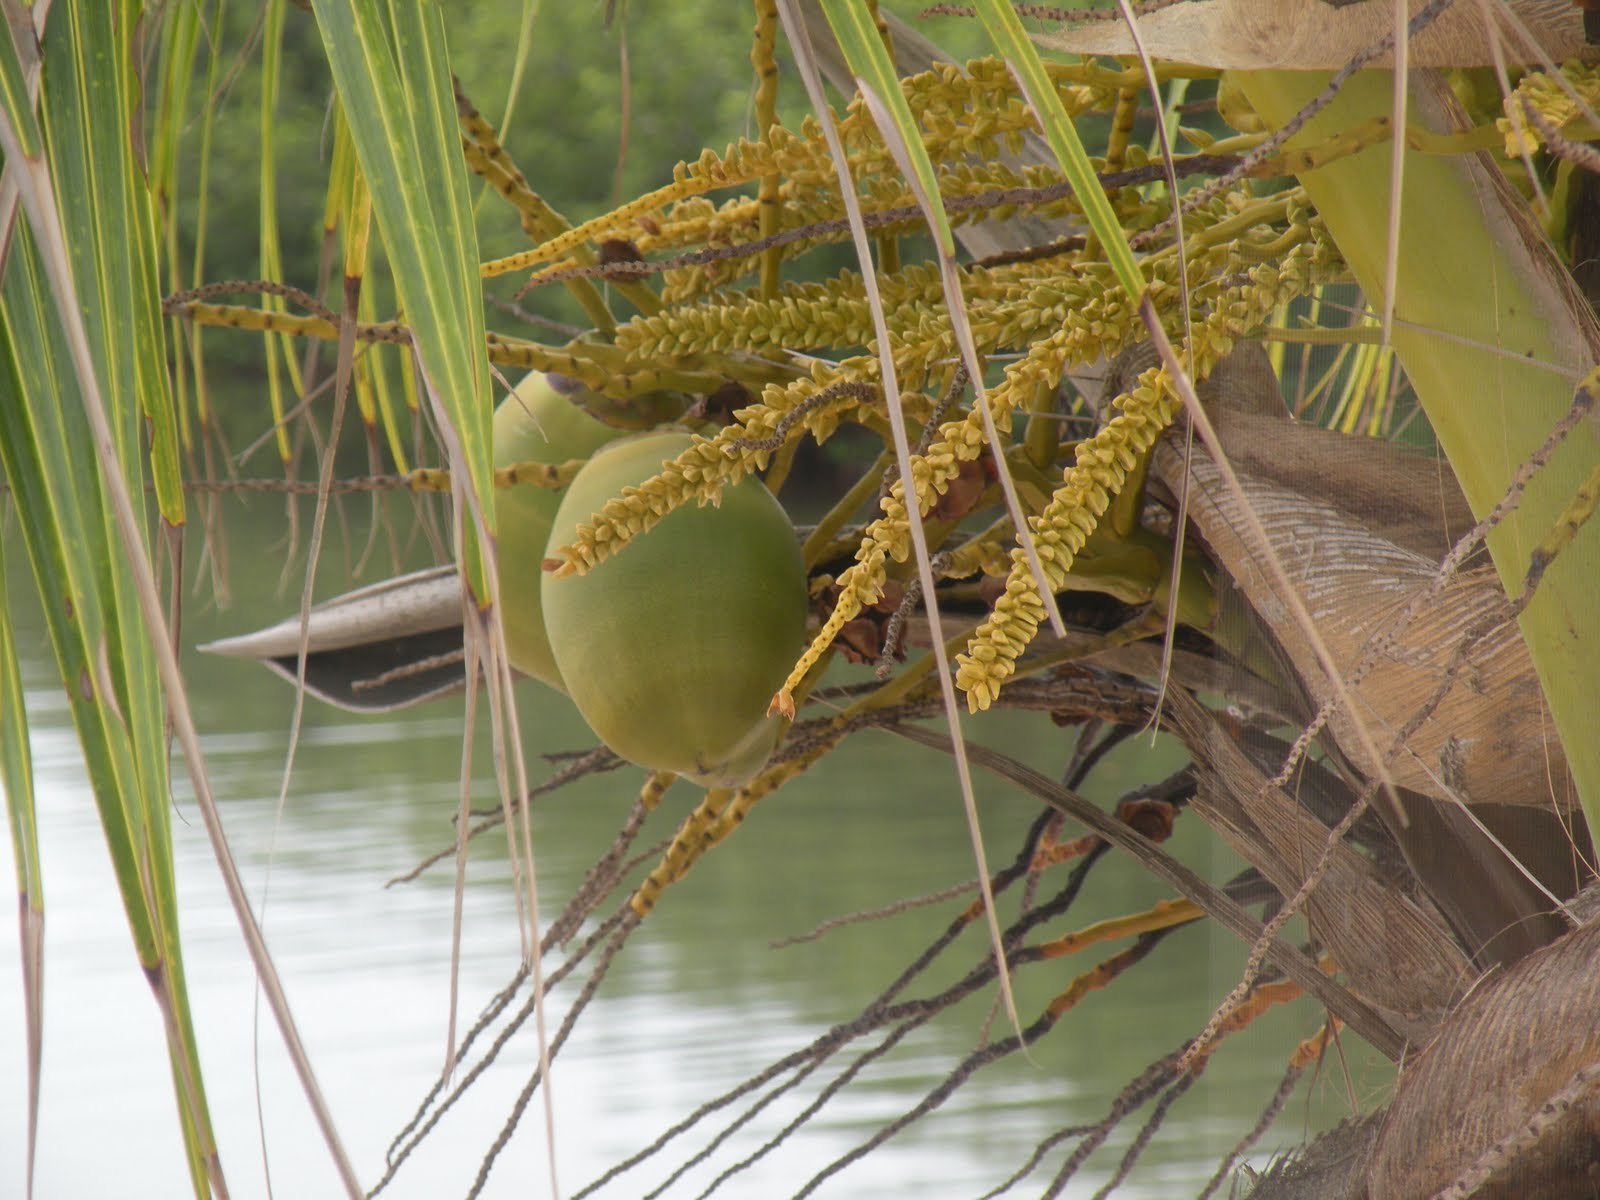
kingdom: Plantae
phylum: Tracheophyta
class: Liliopsida
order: Arecales
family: Arecaceae
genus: Cocos
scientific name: Cocos nucifera
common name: Coconut palm
